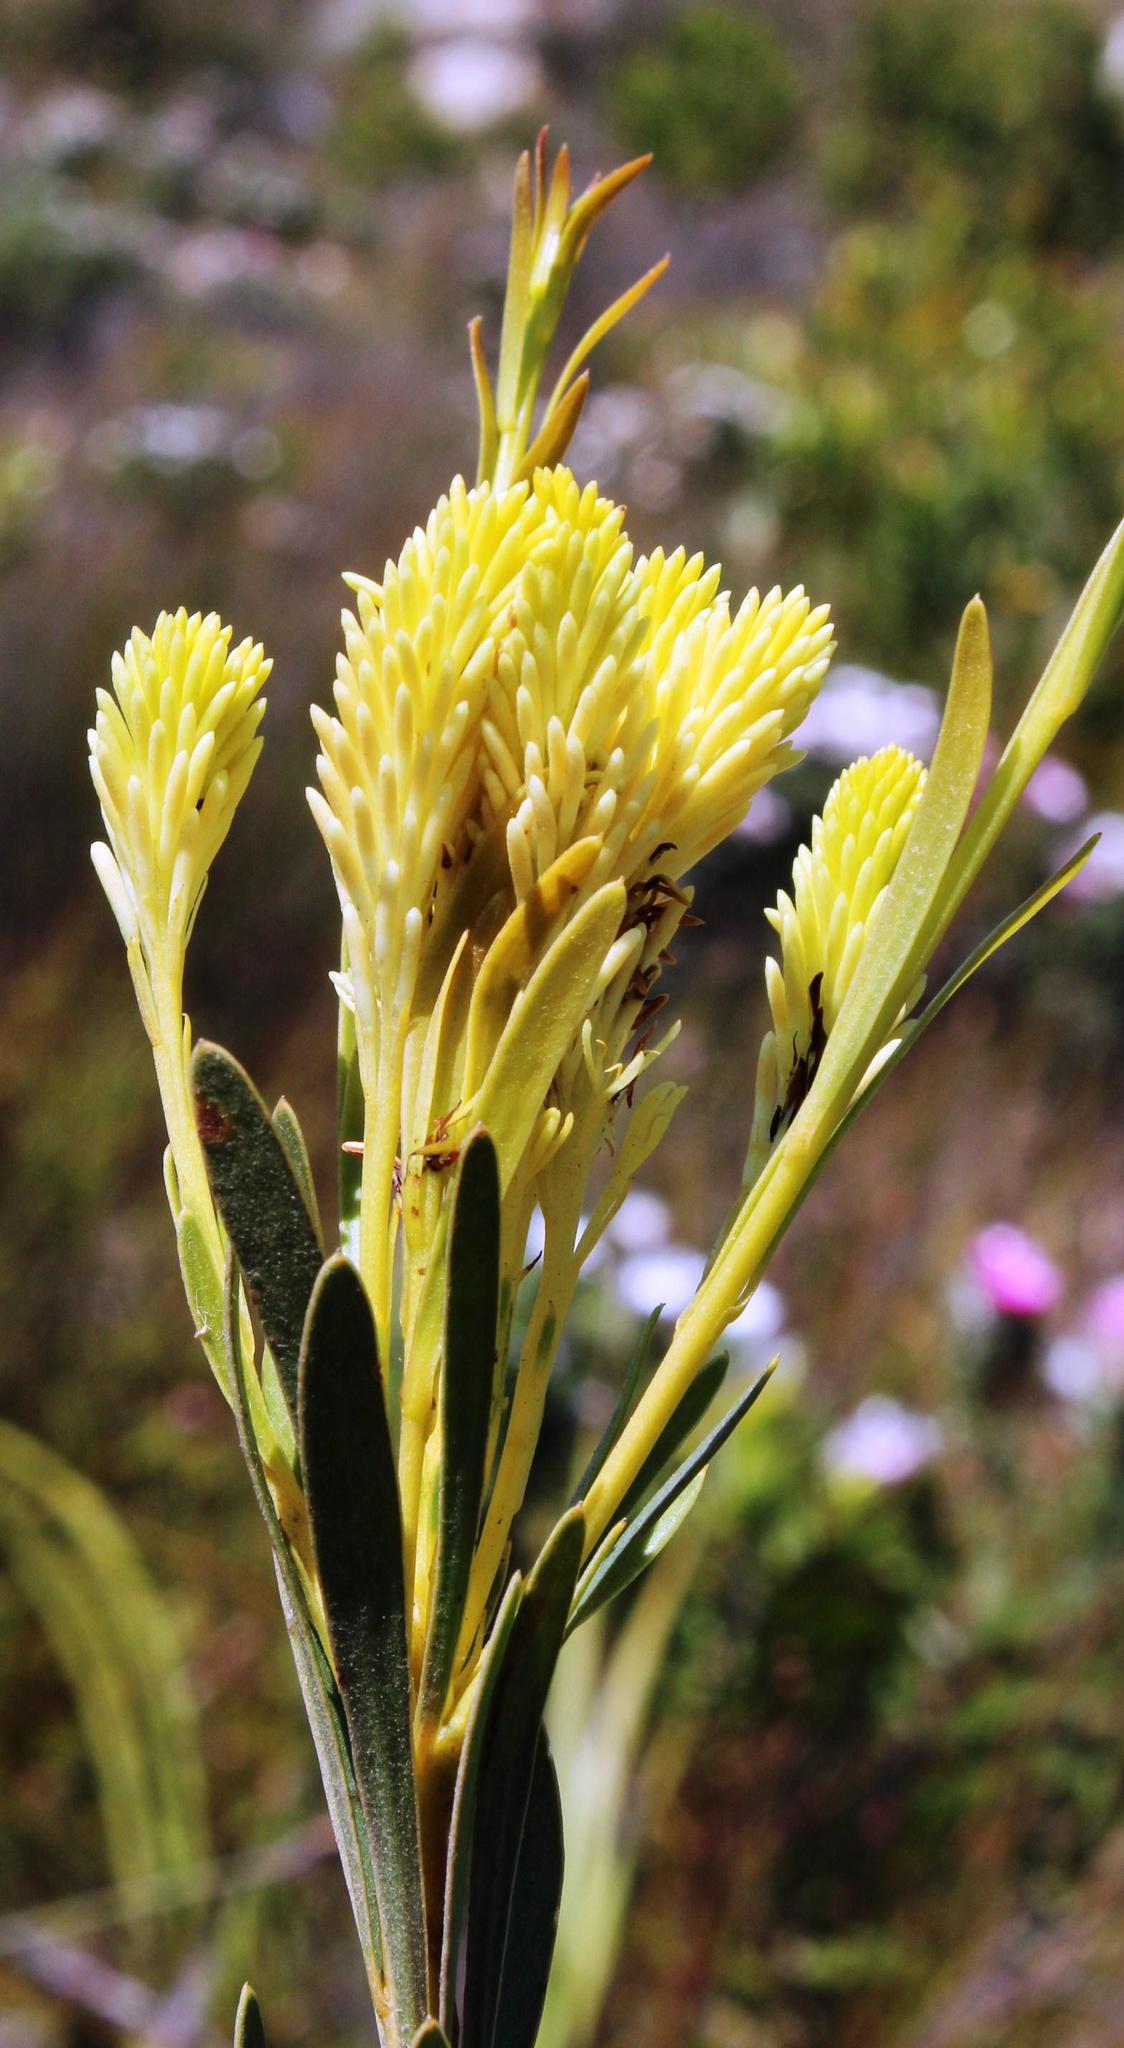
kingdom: Plantae
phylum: Tracheophyta
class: Magnoliopsida
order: Proteales
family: Proteaceae
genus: Aulax
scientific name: Aulax umbellata
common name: Broad-leaf featherbush
